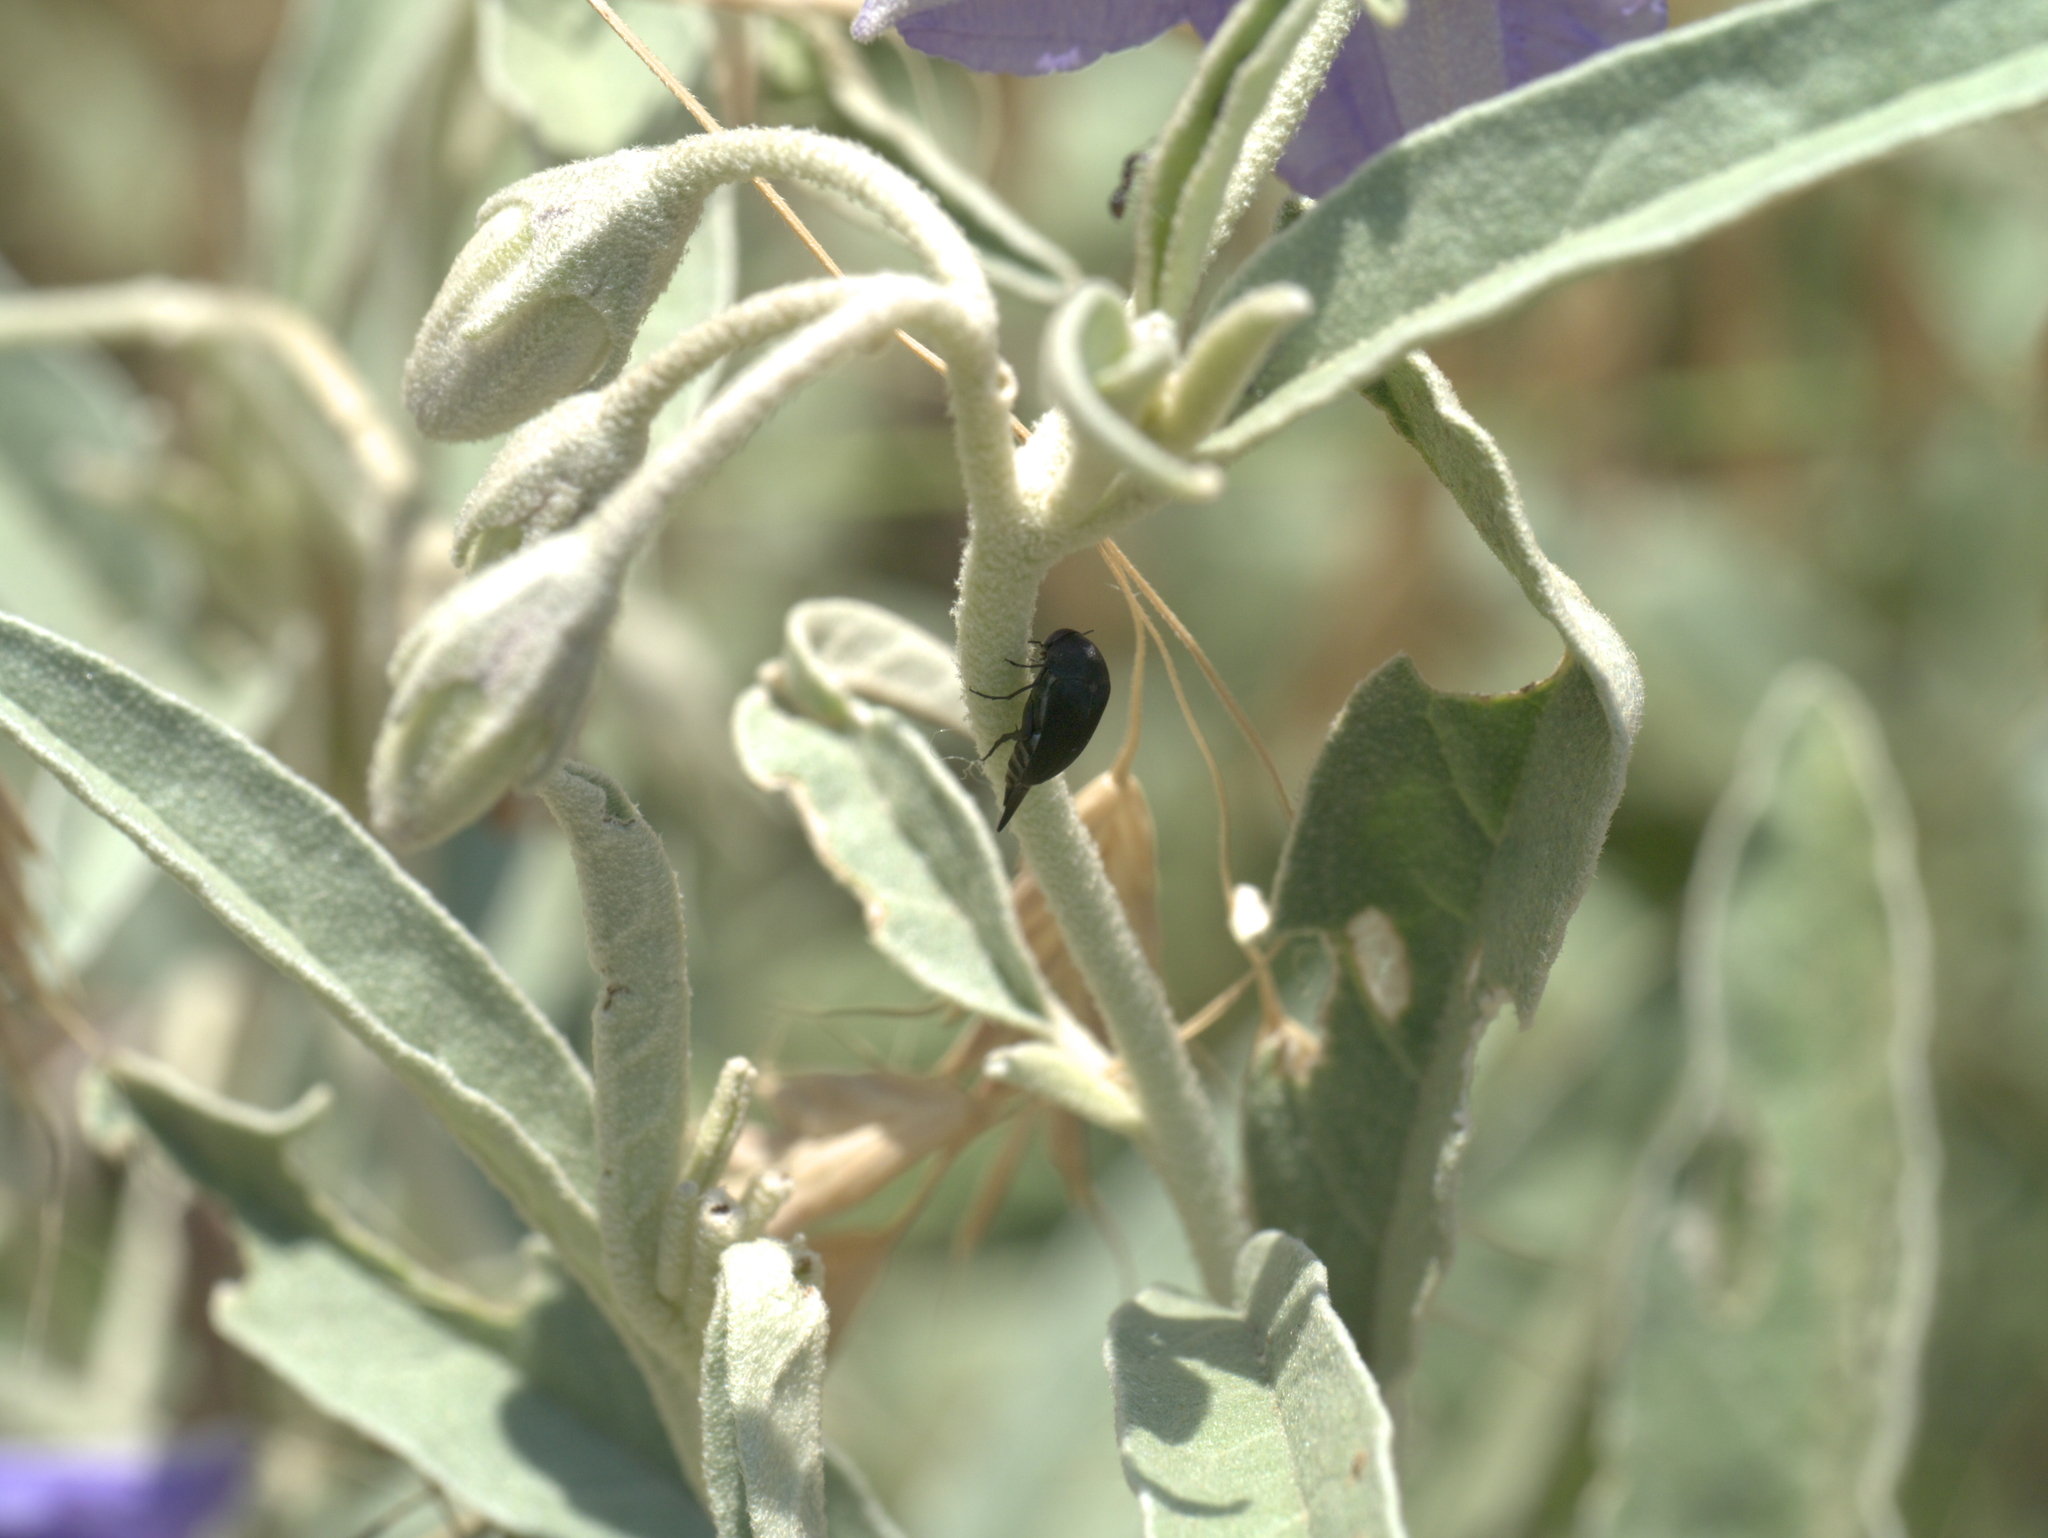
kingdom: Plantae
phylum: Tracheophyta
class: Magnoliopsida
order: Solanales
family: Solanaceae
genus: Solanum
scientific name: Solanum elaeagnifolium
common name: Silverleaf nightshade
